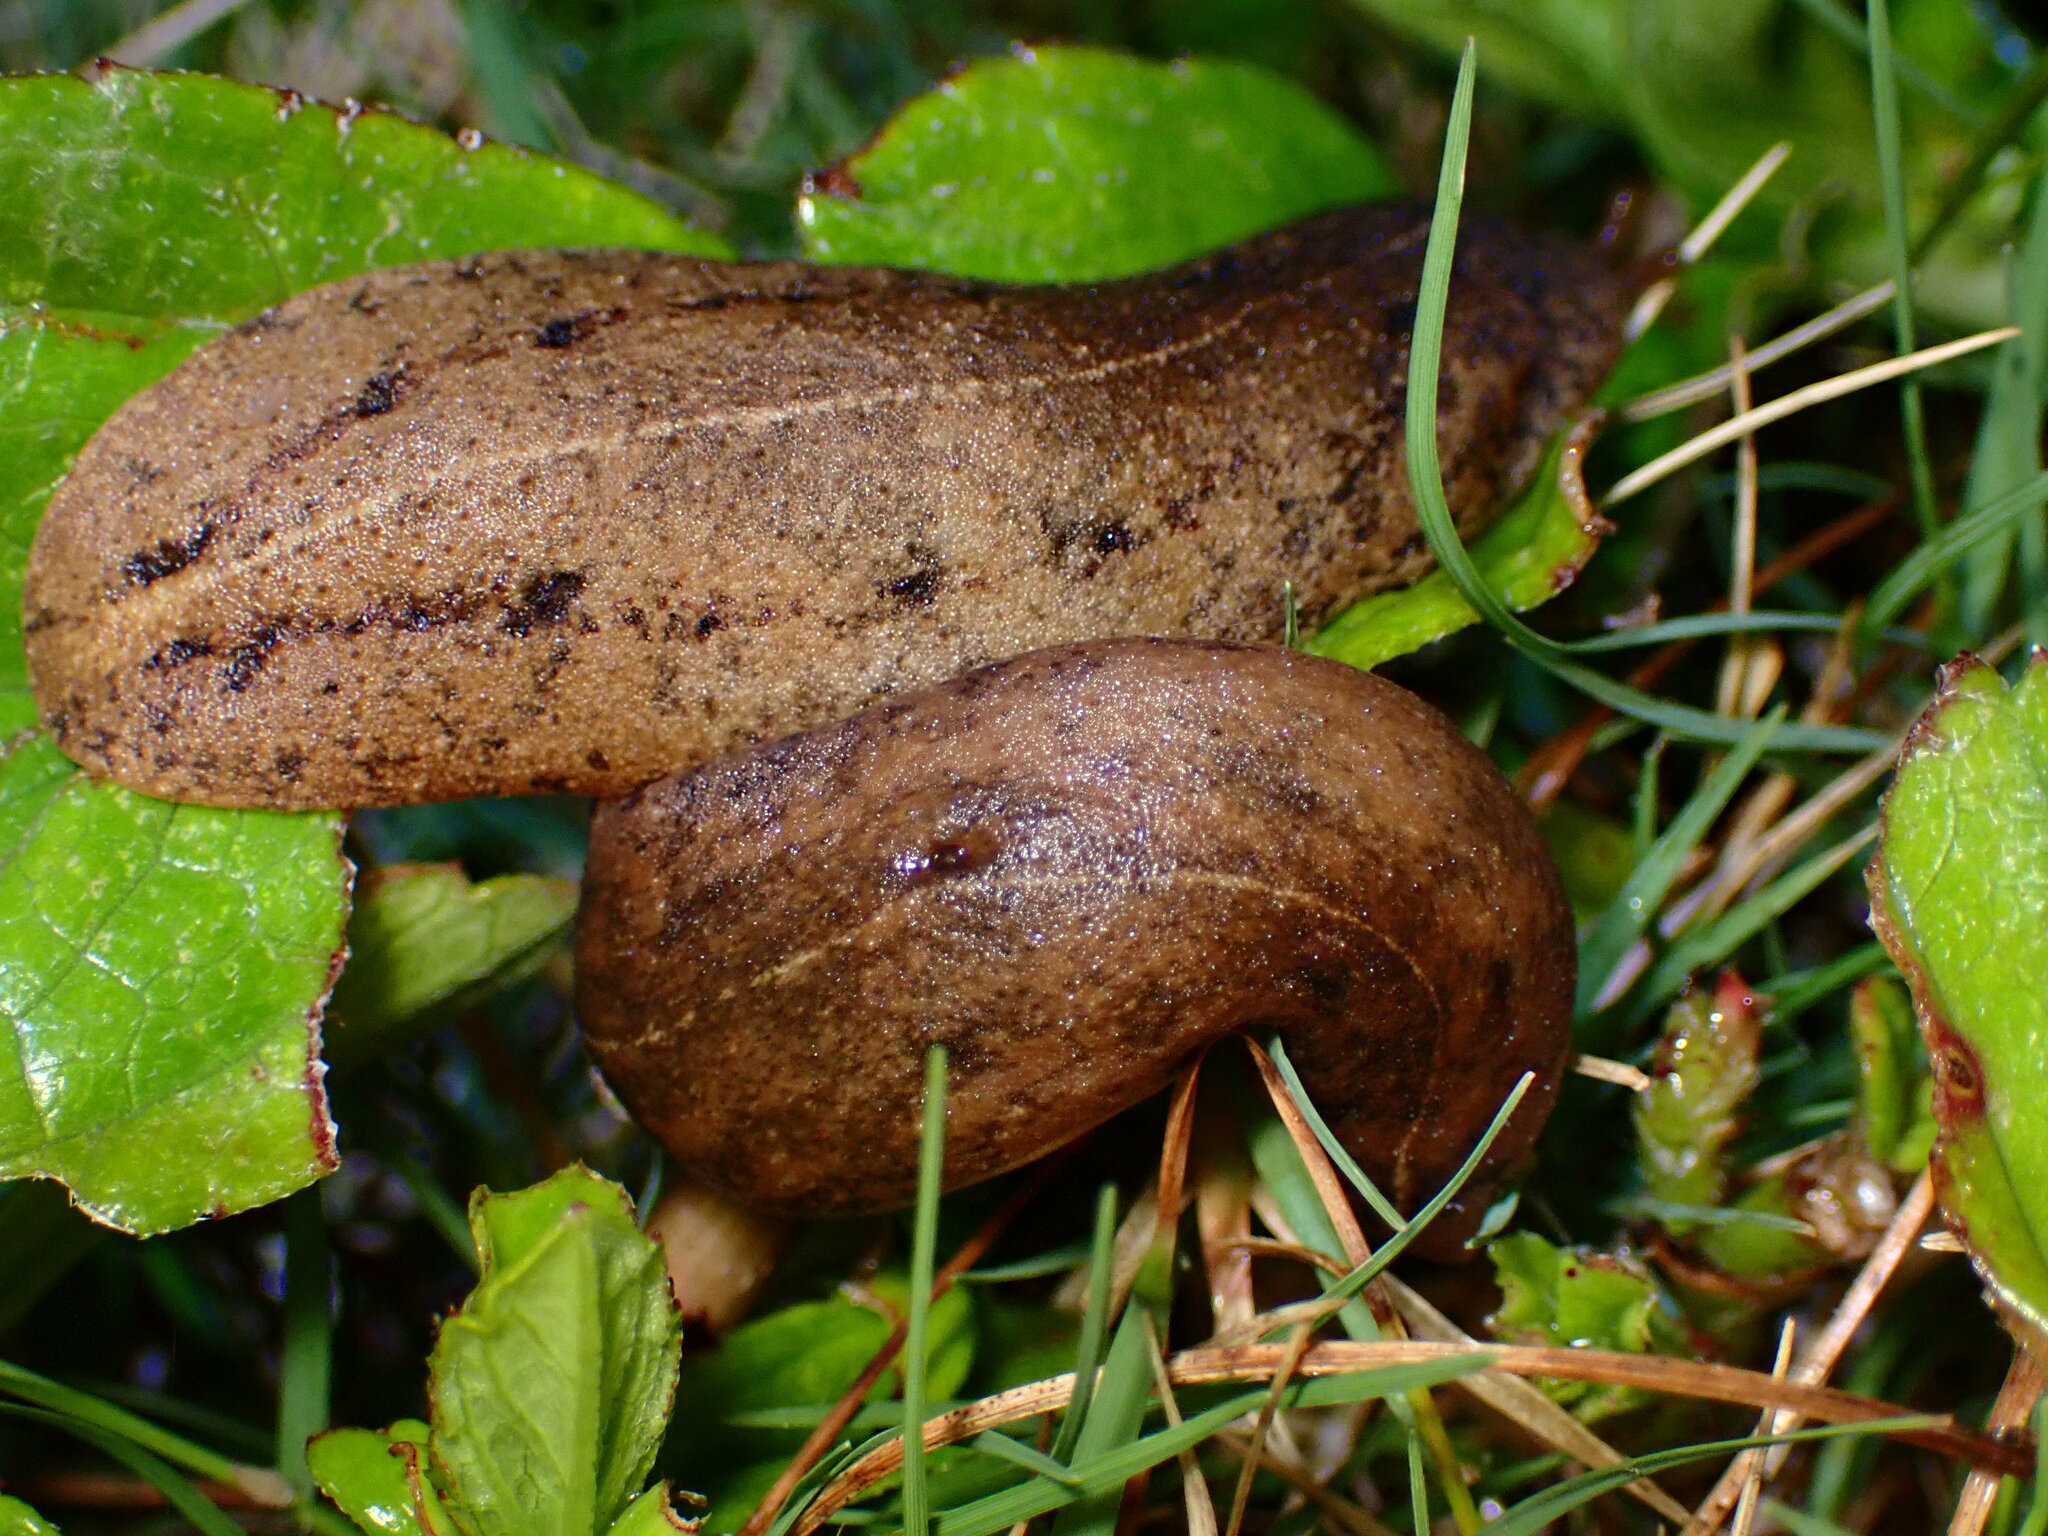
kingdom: Animalia
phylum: Mollusca
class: Gastropoda
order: Systellommatophora
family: Veronicellidae
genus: Veronicella
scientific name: Veronicella cubensis
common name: Two striped slug
